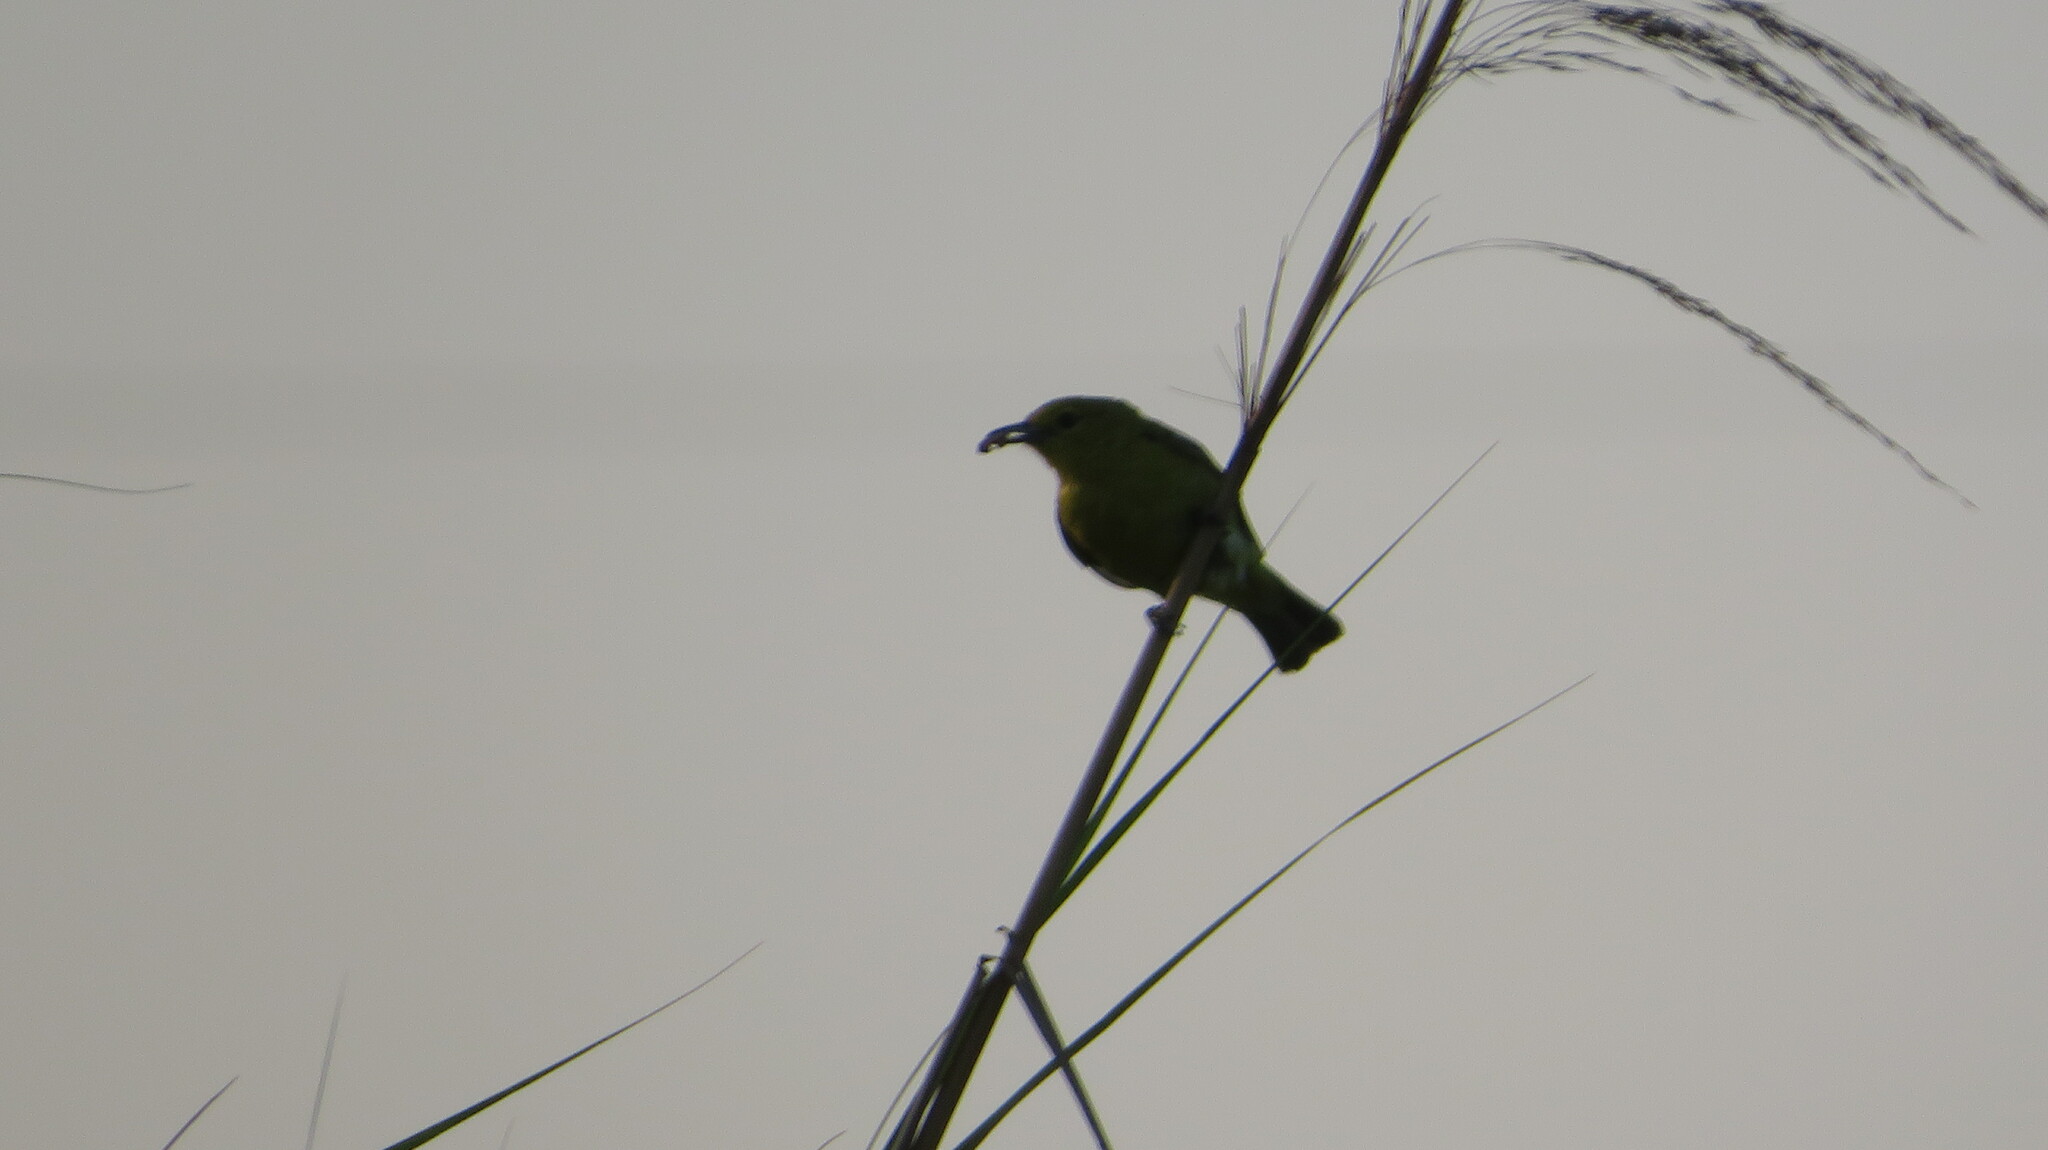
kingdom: Animalia
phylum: Chordata
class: Aves
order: Passeriformes
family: Nectariniidae
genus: Anthreptes
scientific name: Anthreptes malacensis
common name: Brown-throated sunbird
